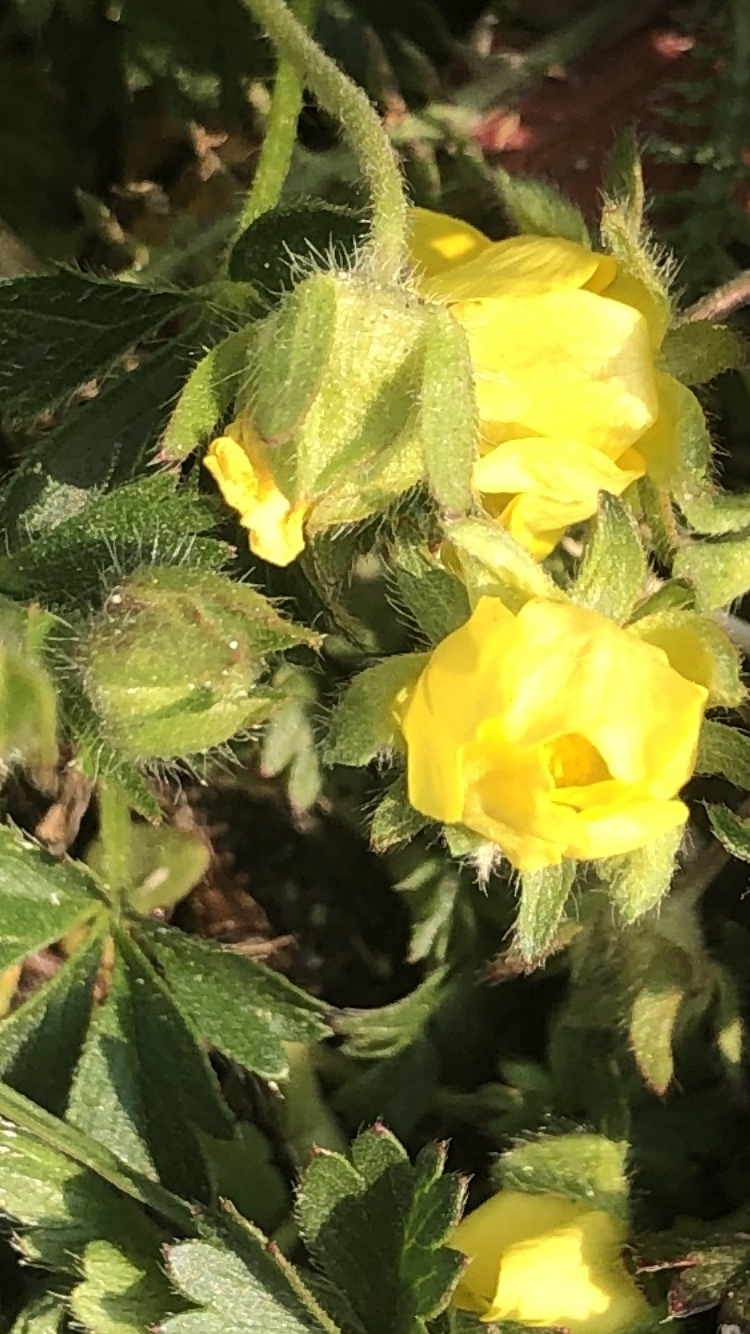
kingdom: Plantae
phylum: Tracheophyta
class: Magnoliopsida
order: Rosales
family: Rosaceae
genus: Potentilla
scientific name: Potentilla verna
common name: Spring cinquefoil
